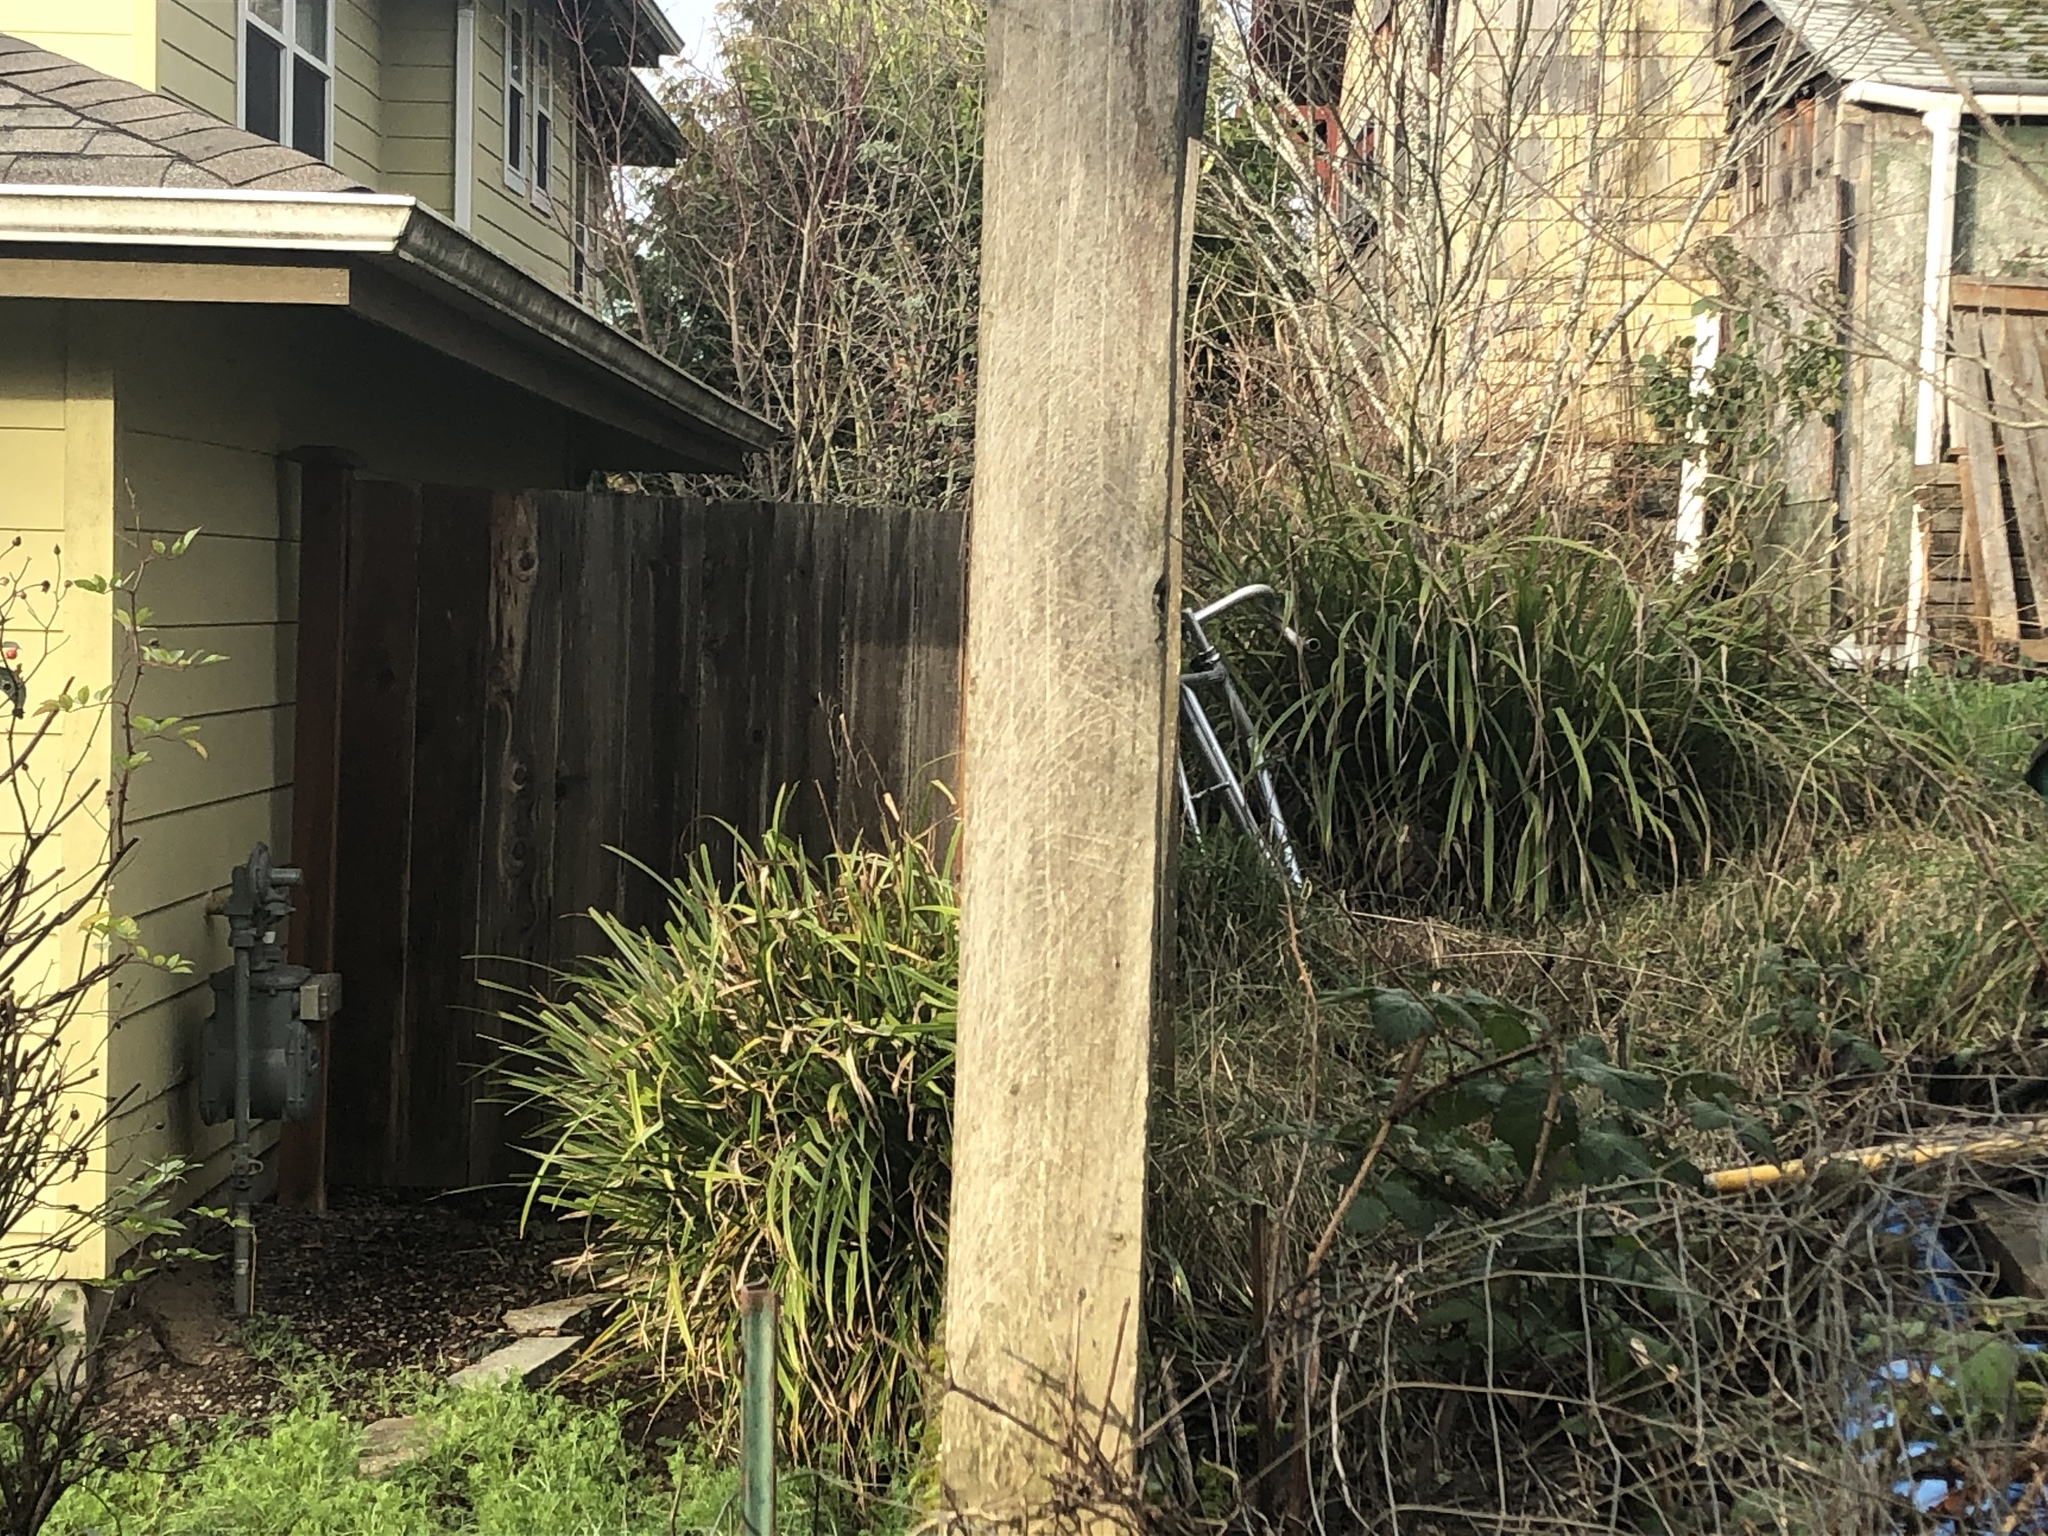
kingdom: Plantae
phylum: Tracheophyta
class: Liliopsida
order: Poales
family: Cyperaceae
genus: Carex
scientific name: Carex pendula
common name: Pendulous sedge
